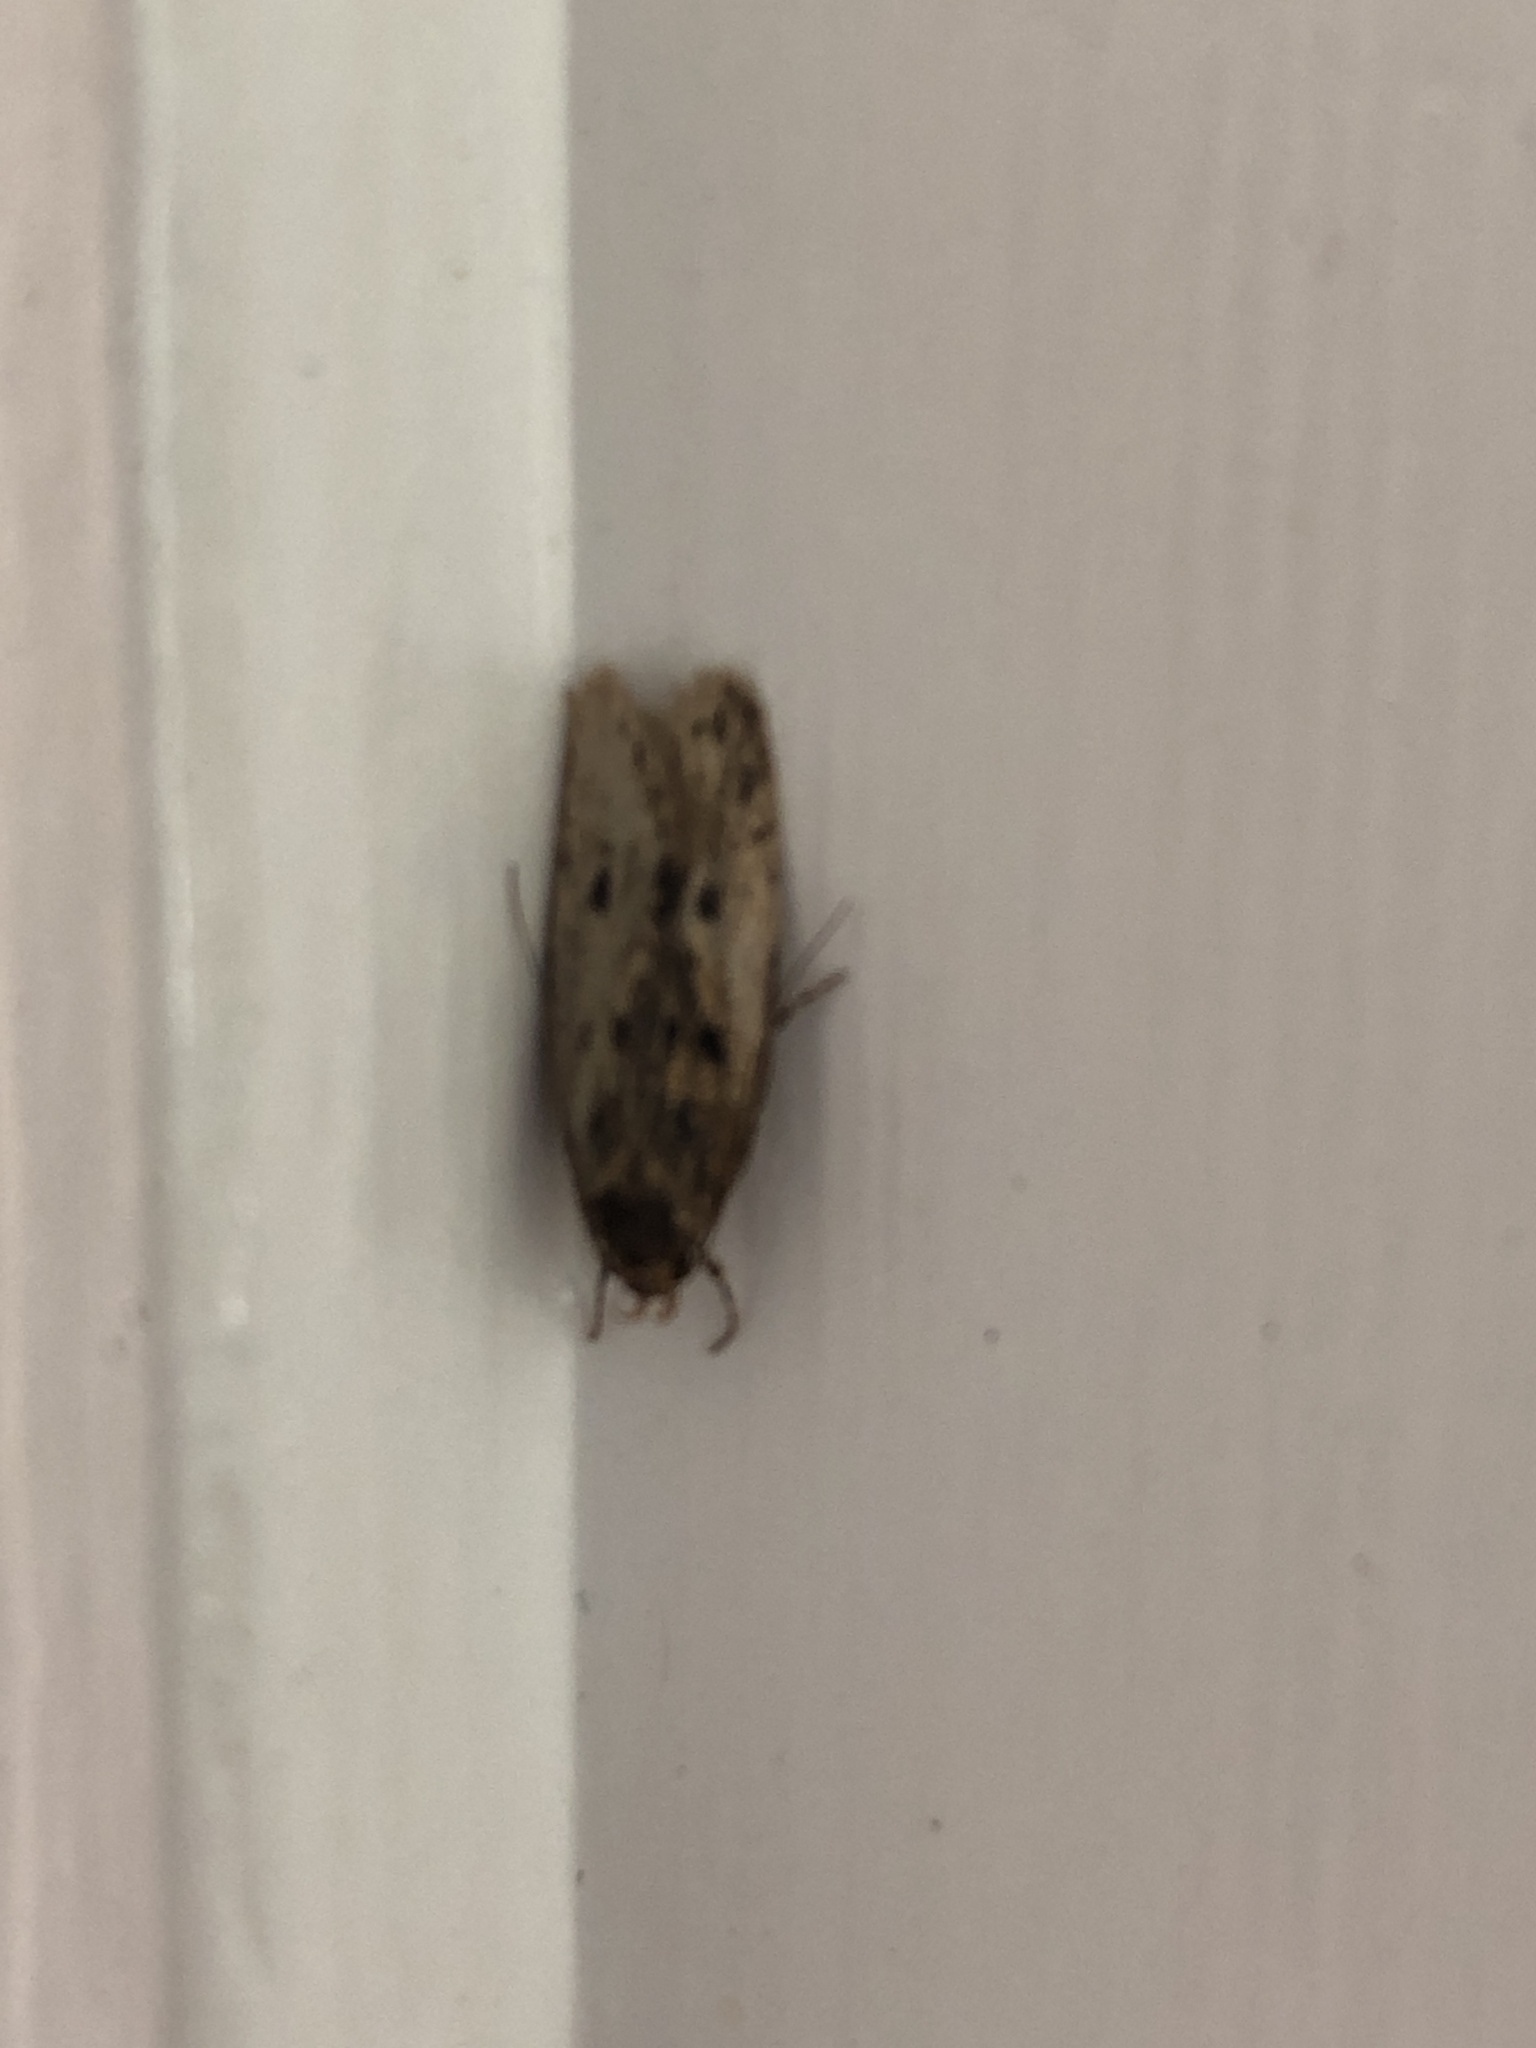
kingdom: Animalia
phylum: Arthropoda
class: Insecta
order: Lepidoptera
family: Oecophoridae
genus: Hofmannophila
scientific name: Hofmannophila pseudospretella
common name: Brown house moth
